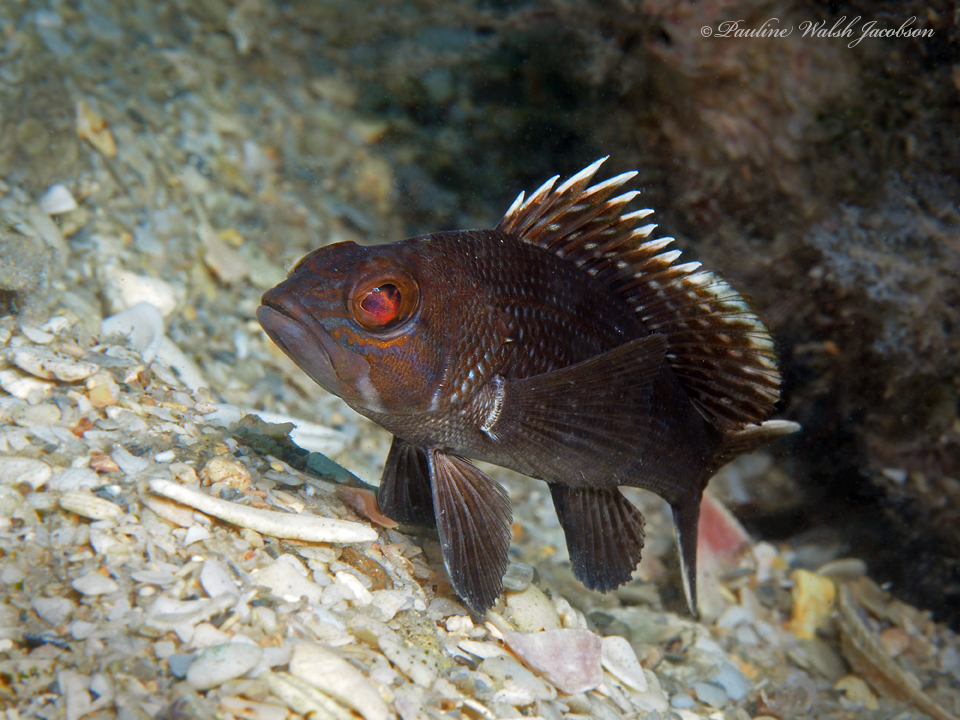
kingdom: Animalia
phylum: Chordata
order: Perciformes
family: Serranidae
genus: Centropristis
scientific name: Centropristis striata
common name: Black sea bass
